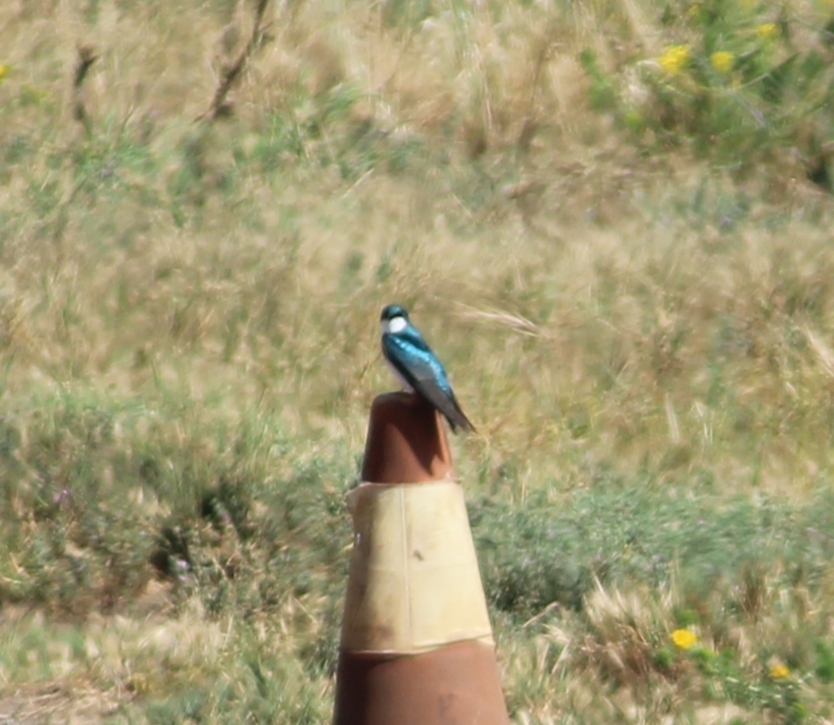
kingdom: Animalia
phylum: Chordata
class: Aves
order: Passeriformes
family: Hirundinidae
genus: Tachycineta
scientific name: Tachycineta bicolor
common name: Tree swallow
